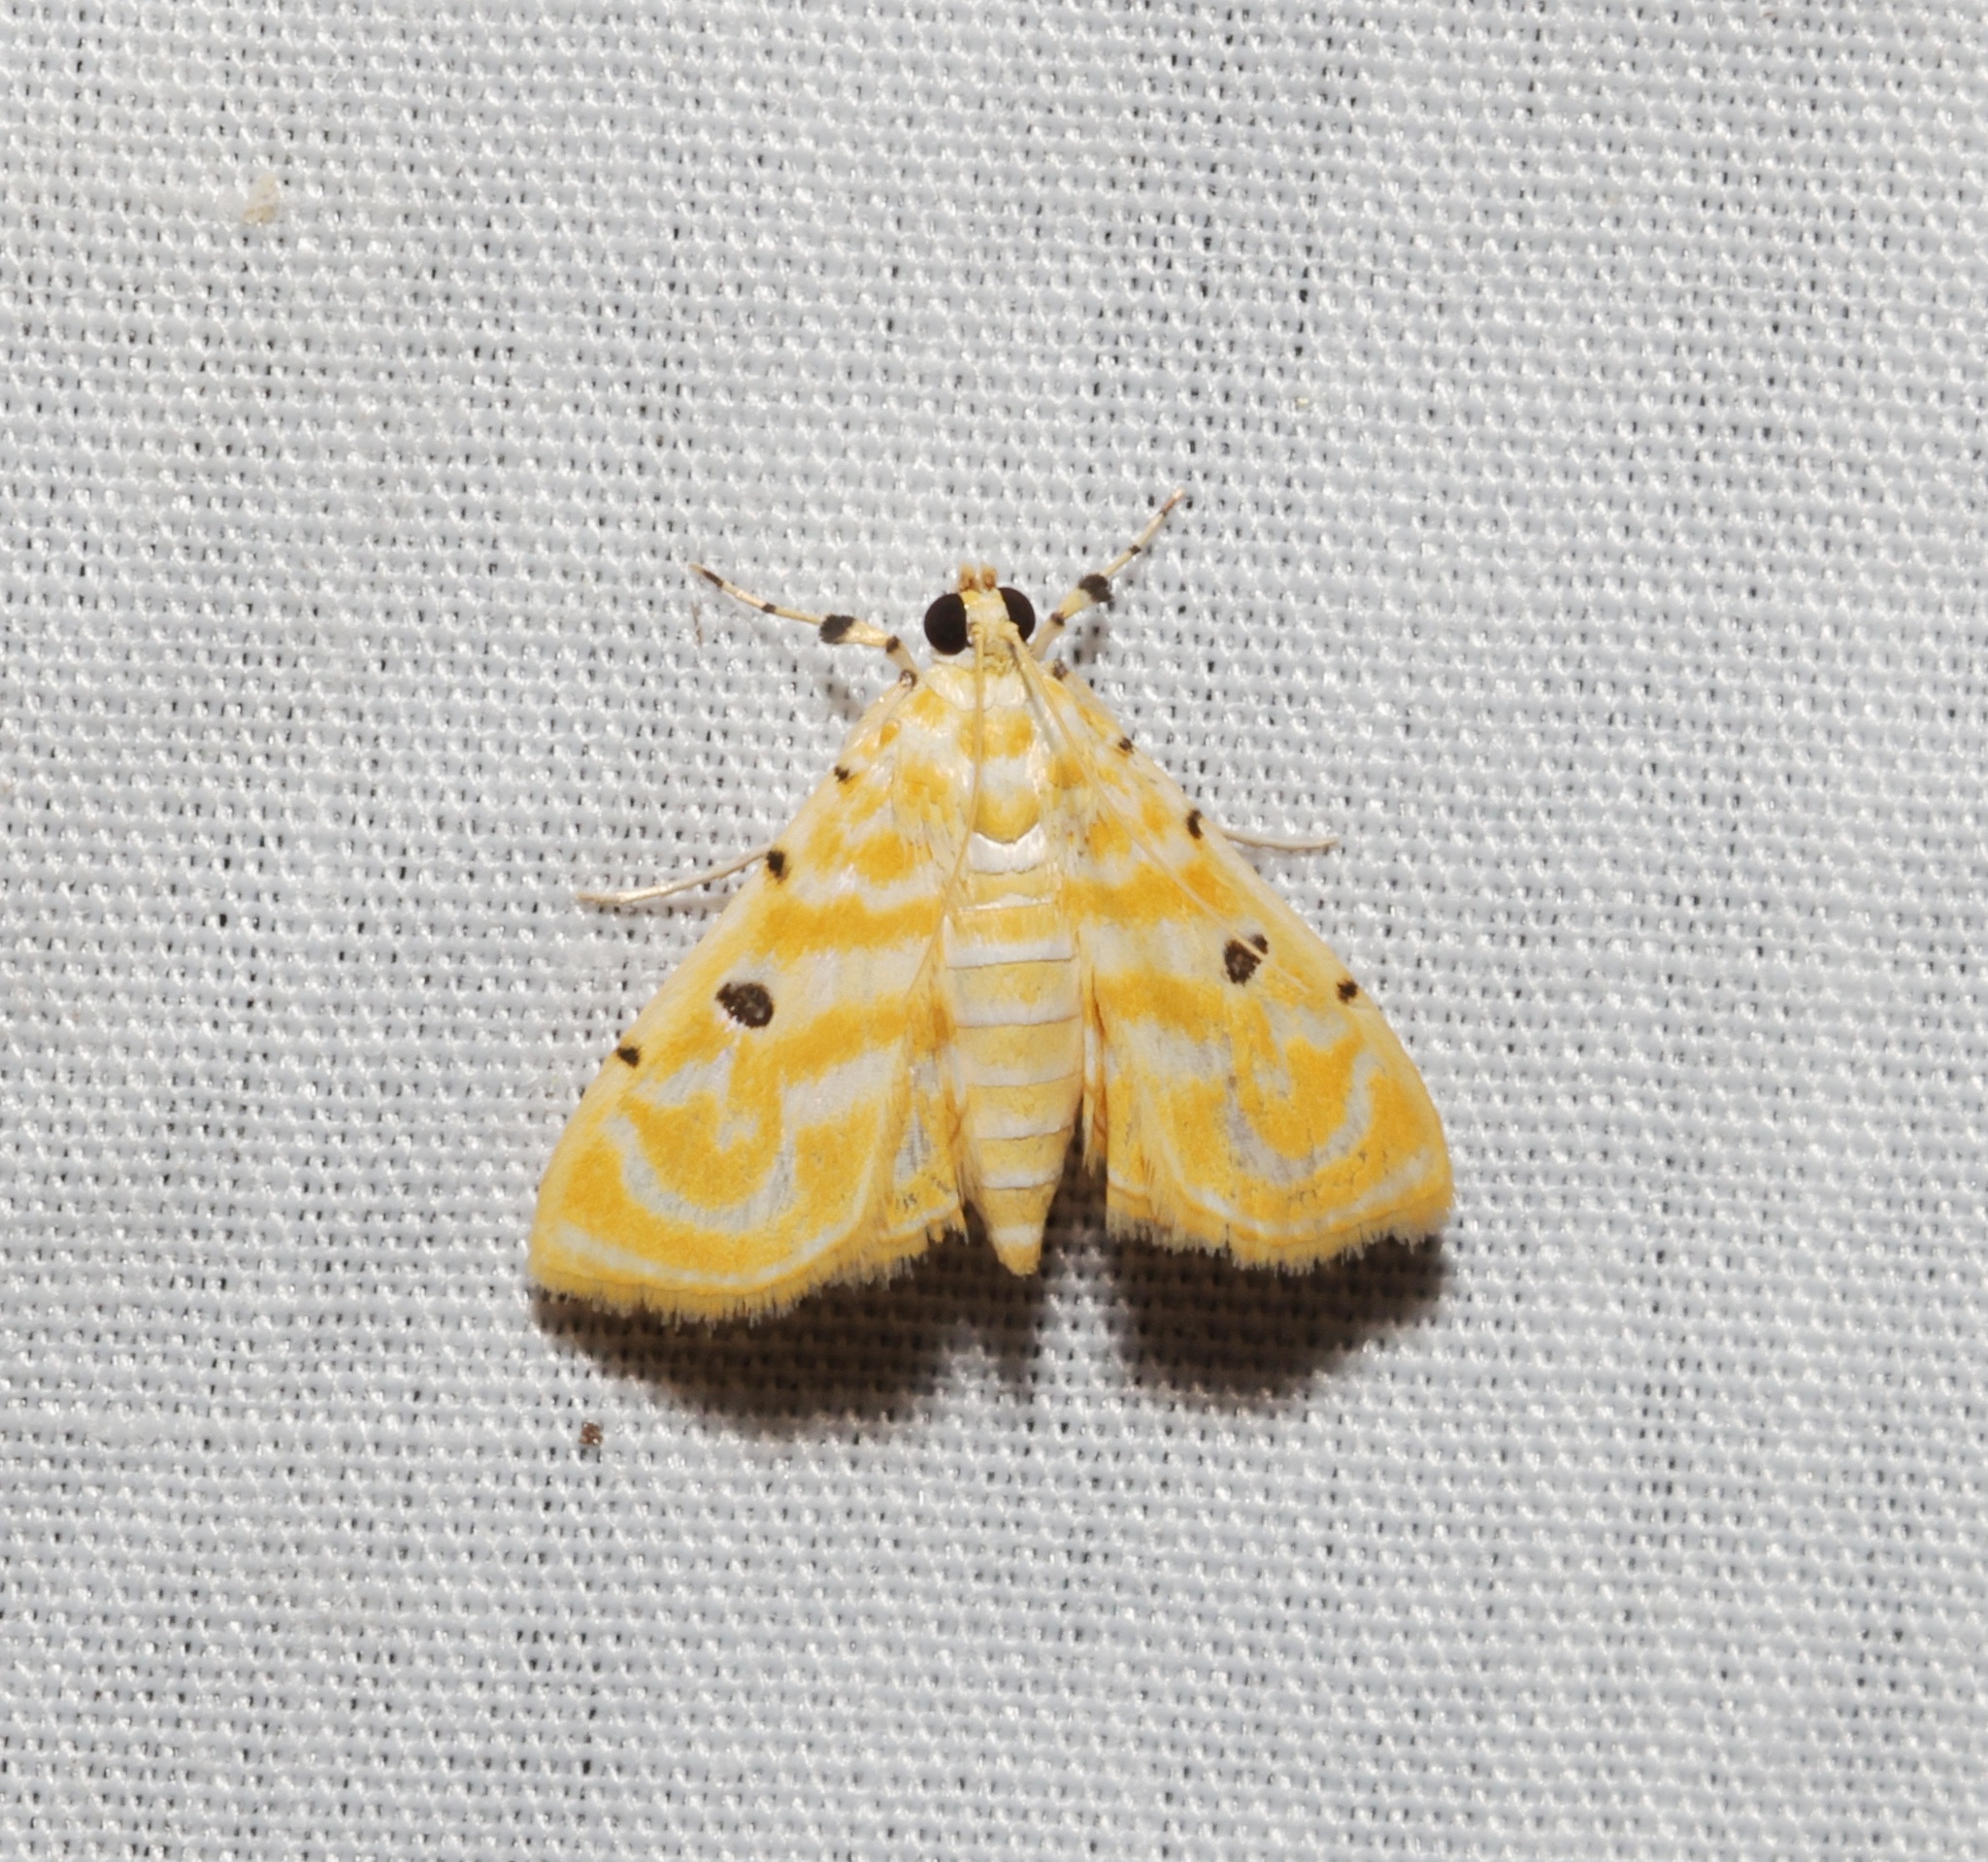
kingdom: Animalia
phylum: Arthropoda
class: Insecta
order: Lepidoptera
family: Crambidae
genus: Notarcha
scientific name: Notarcha aurolinealis
